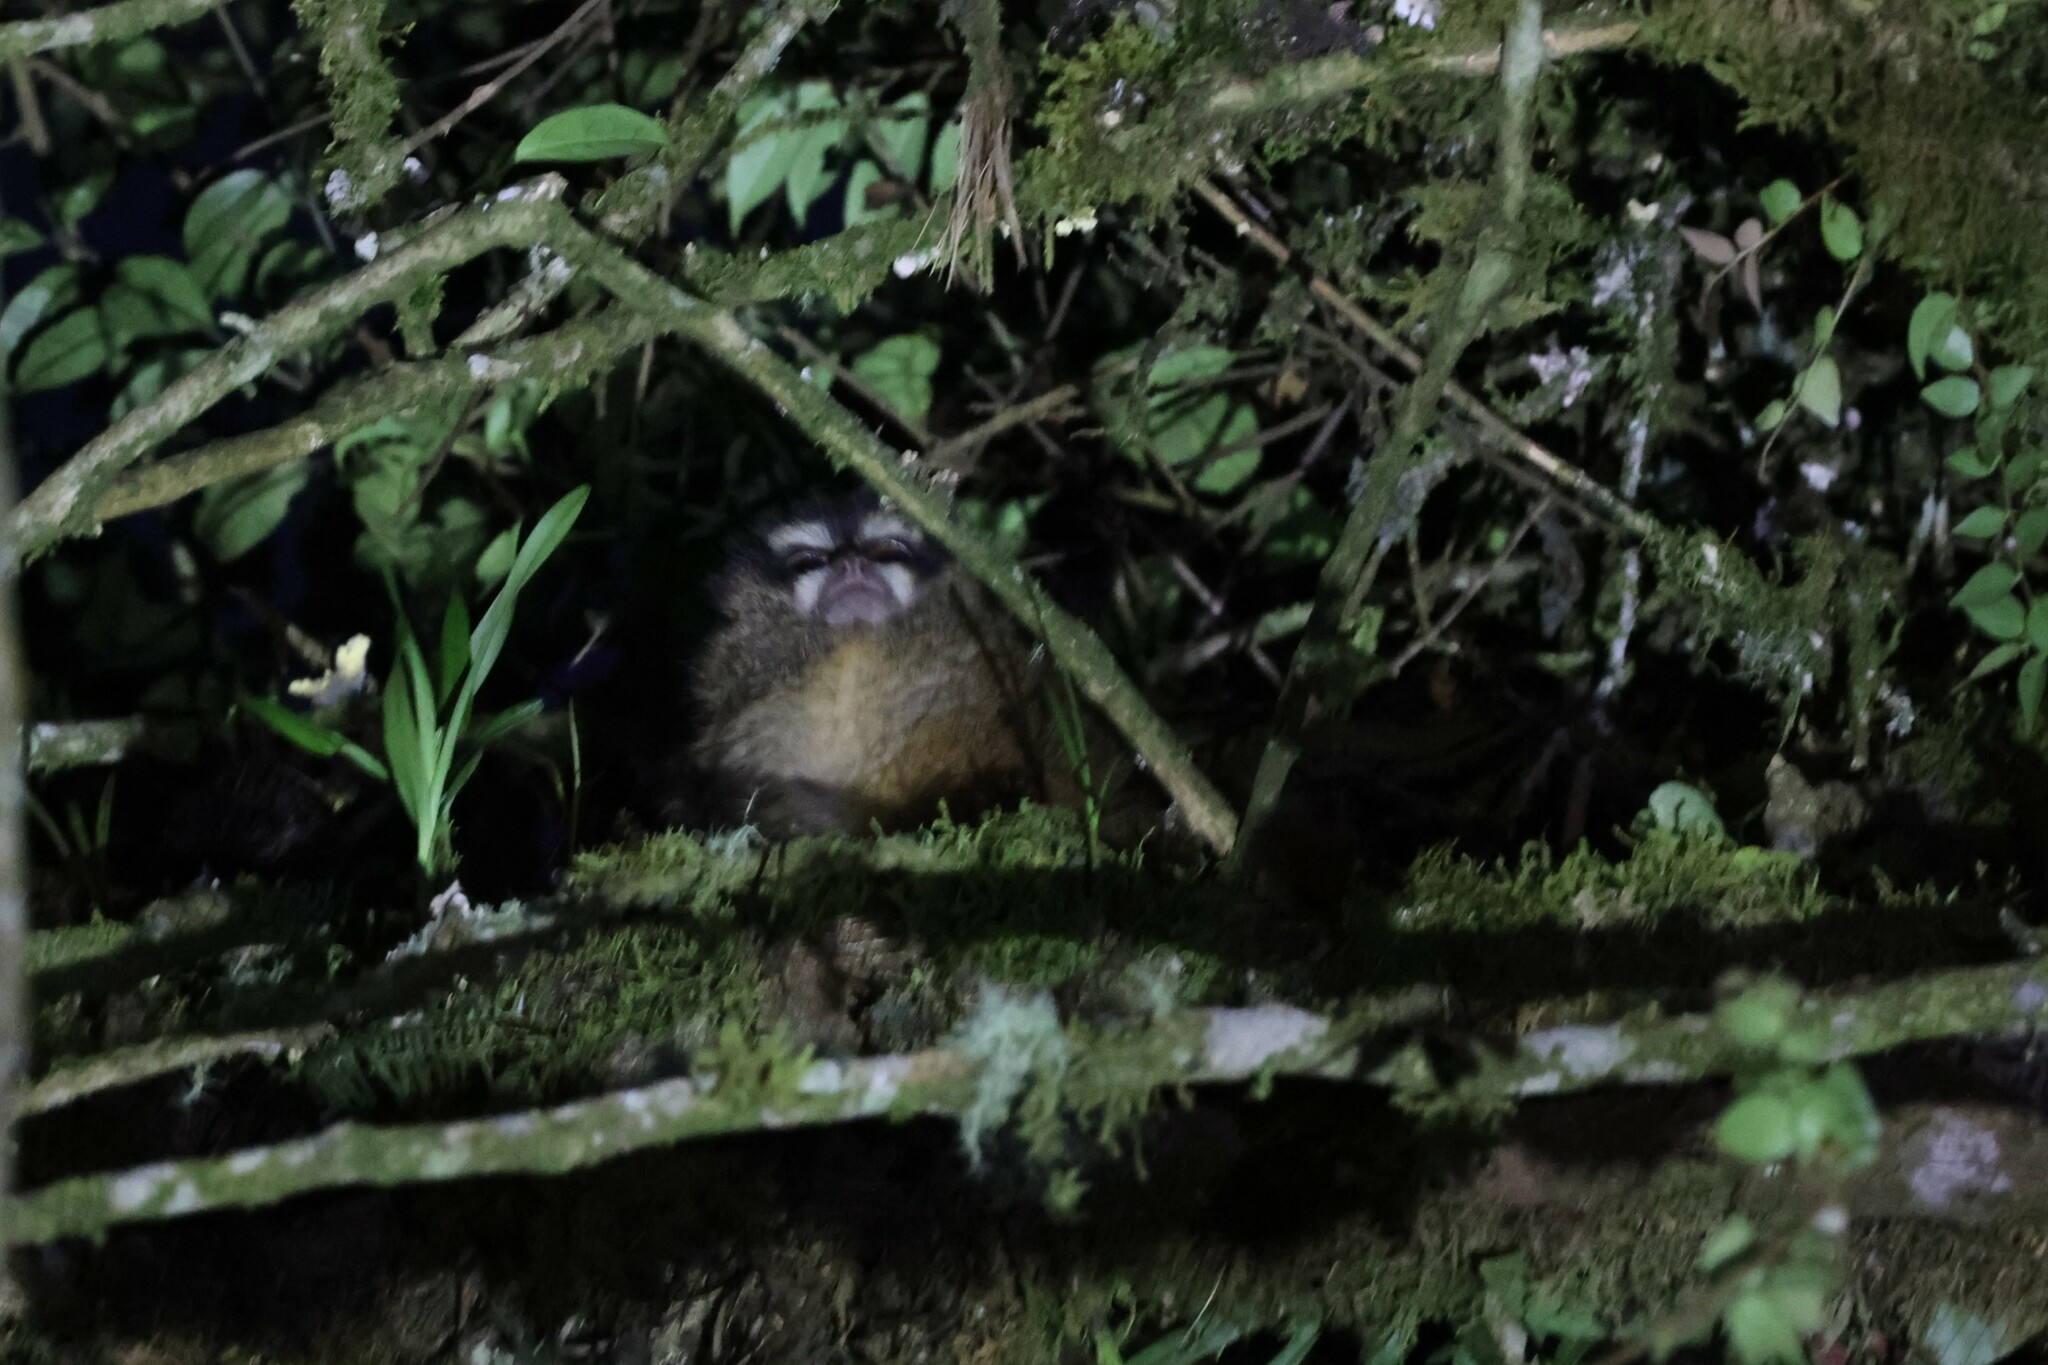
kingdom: Animalia
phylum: Chordata
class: Mammalia
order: Primates
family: Aotidae
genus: Aotus
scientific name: Aotus lemurinus
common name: Gray-bellied night monkey
